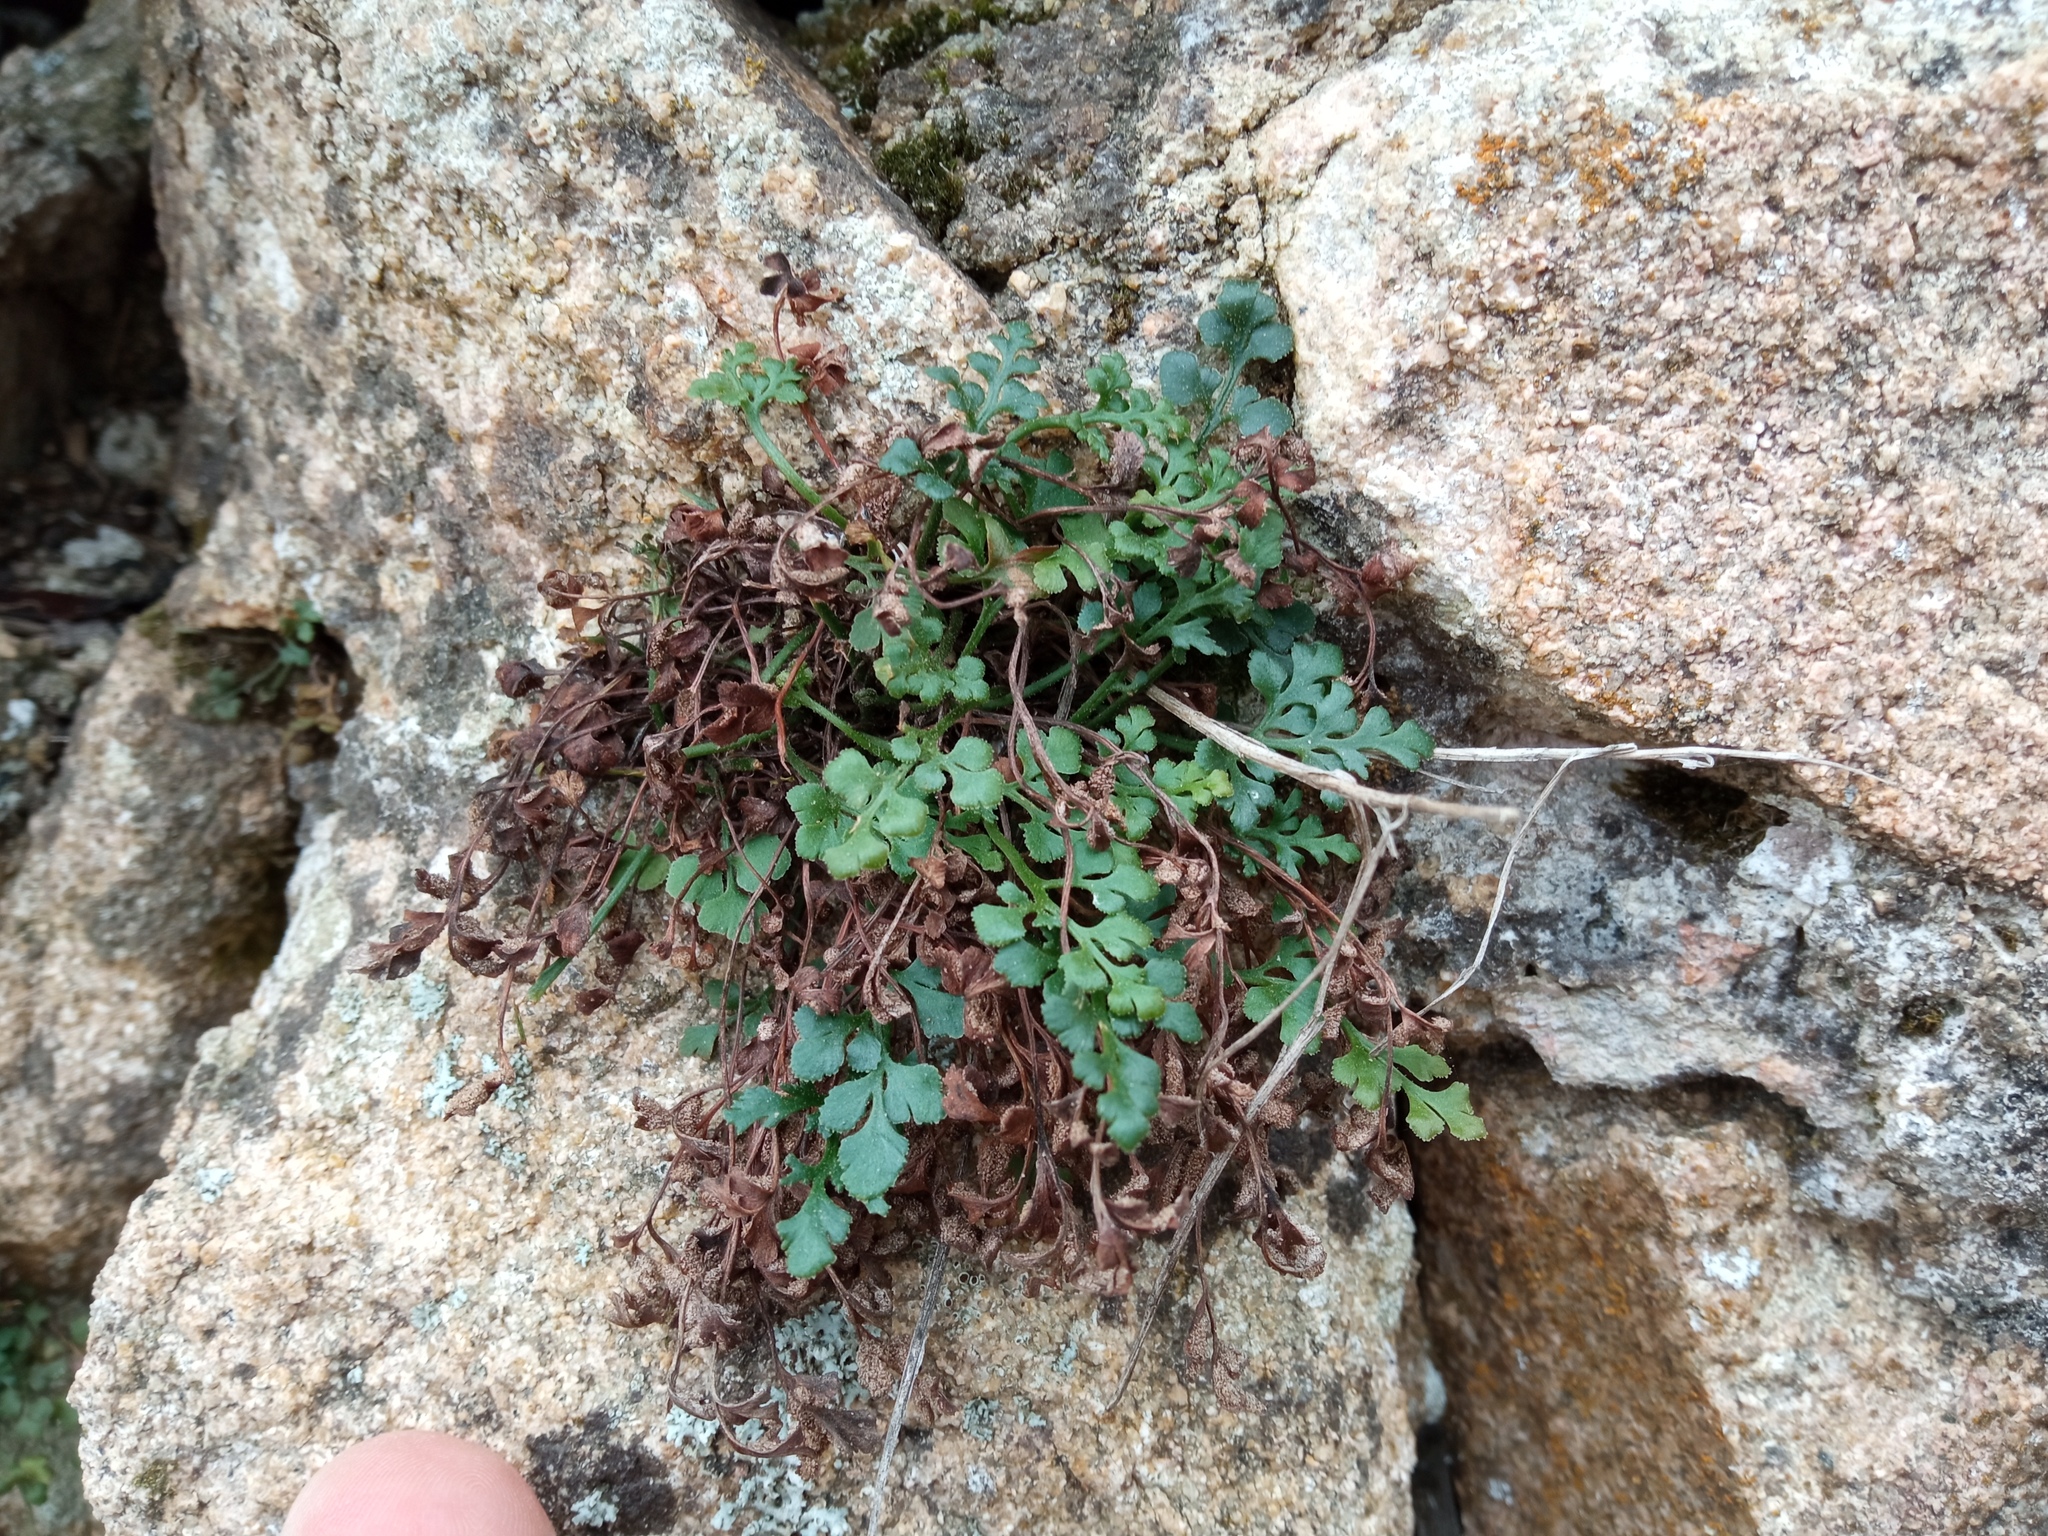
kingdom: Plantae
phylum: Tracheophyta
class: Polypodiopsida
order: Polypodiales
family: Aspleniaceae
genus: Asplenium
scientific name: Asplenium ruta-muraria
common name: Wall-rue
